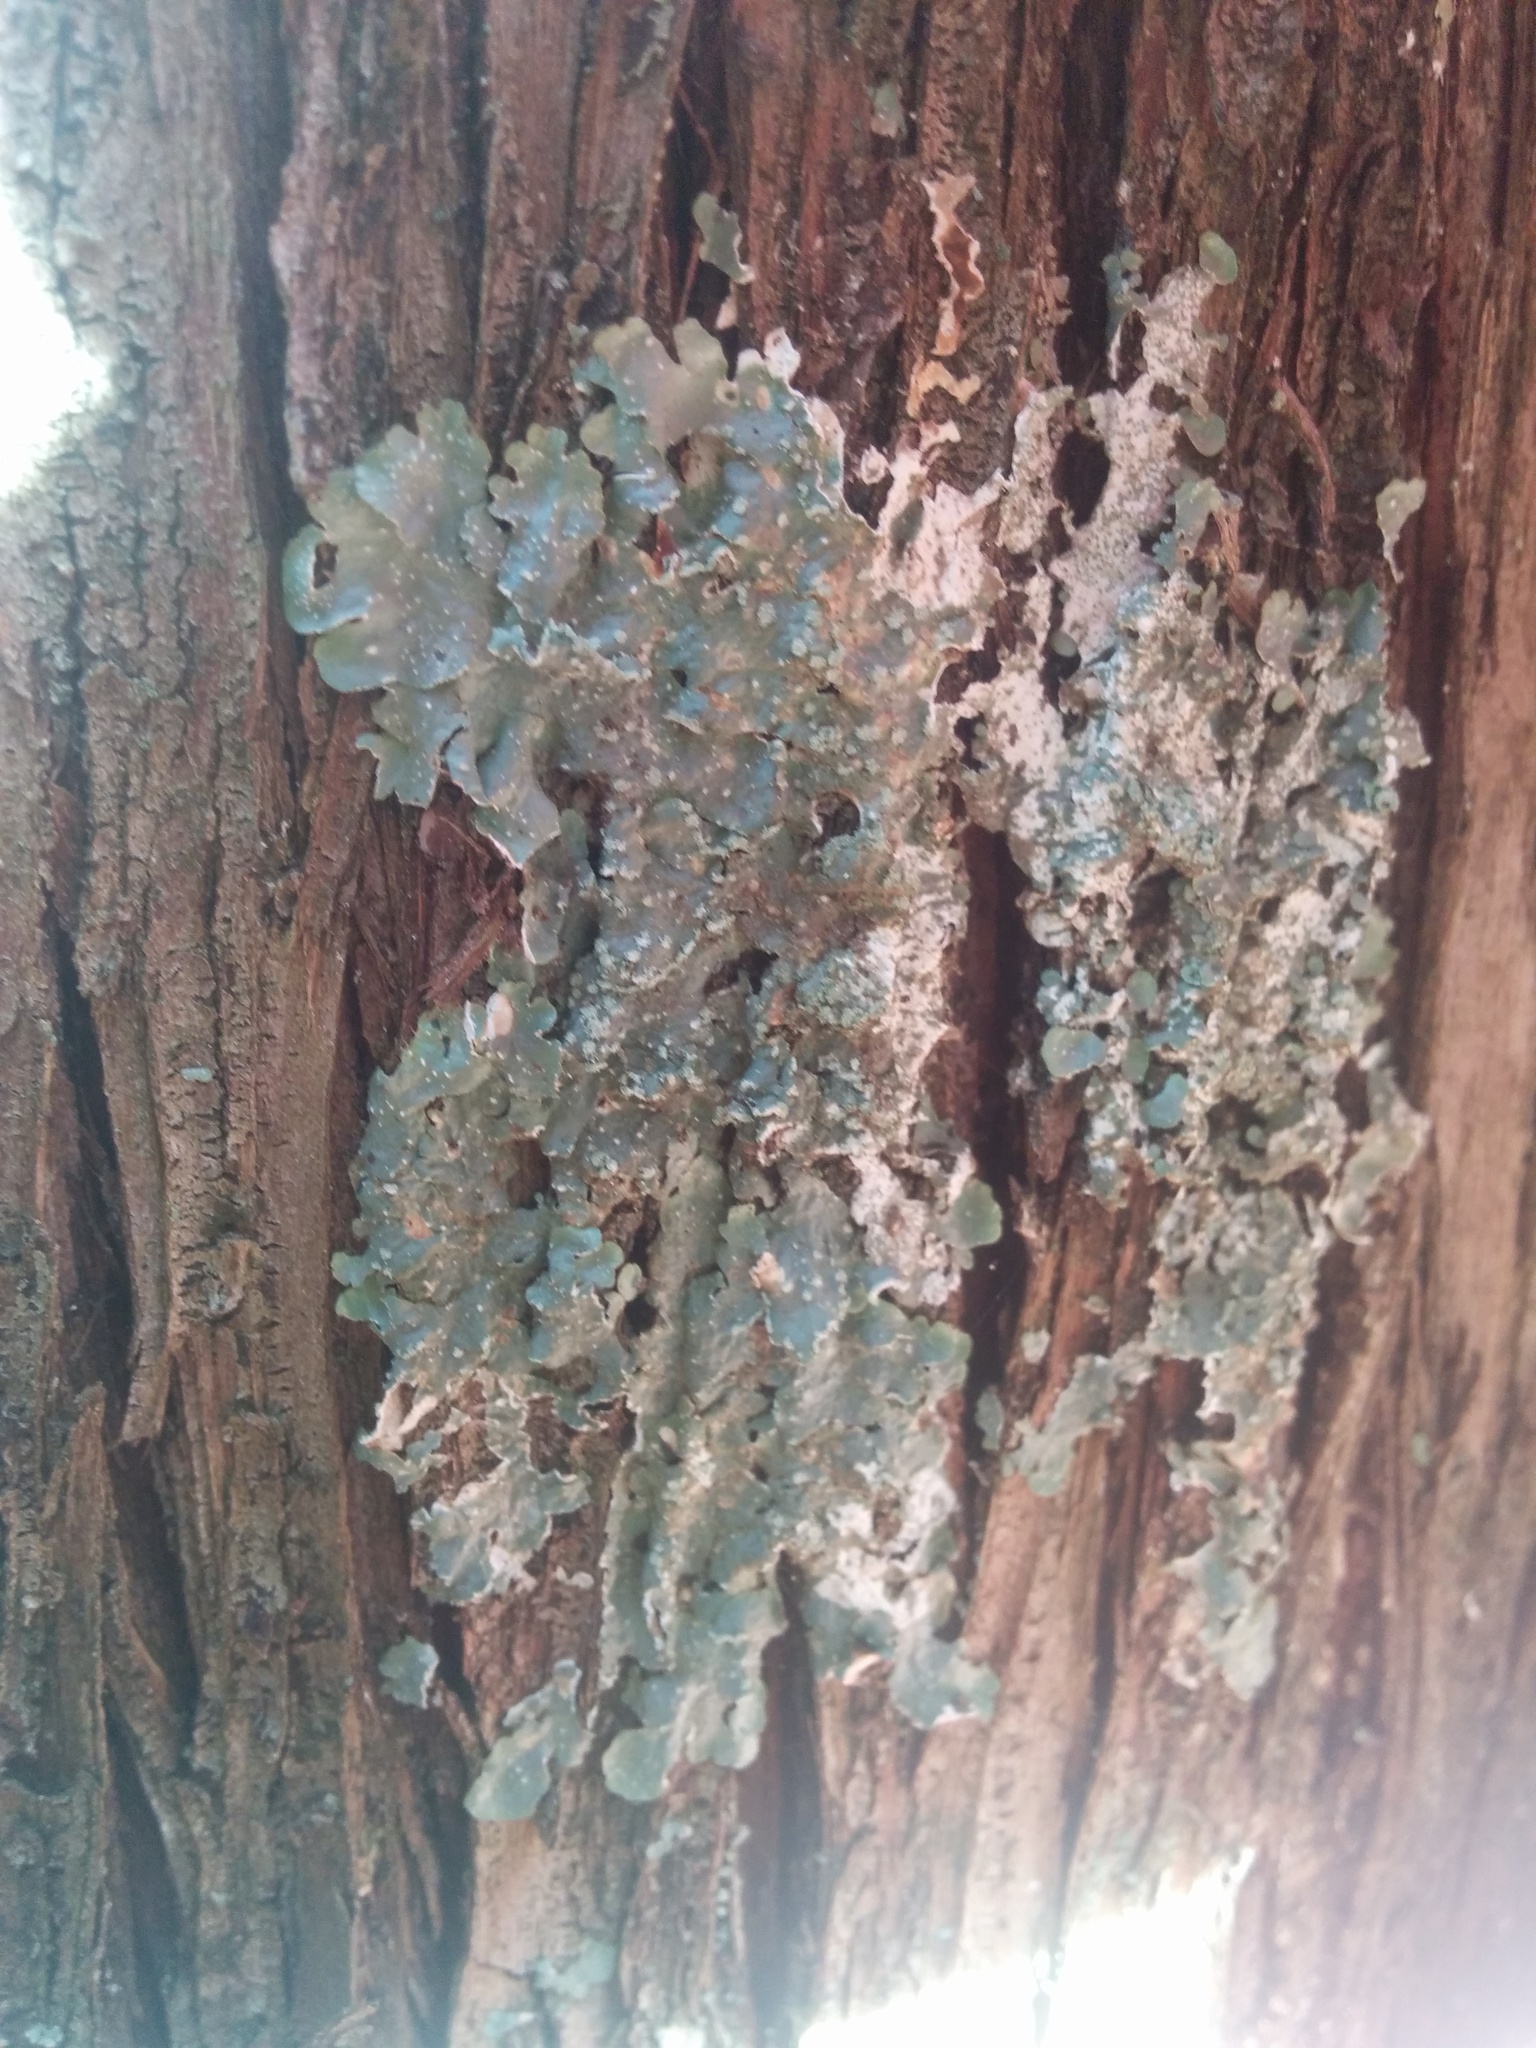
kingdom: Fungi
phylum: Ascomycota
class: Lecanoromycetes
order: Lecanorales
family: Parmeliaceae
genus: Punctelia
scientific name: Punctelia subrudecta
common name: Powdered speckled shield lichen
